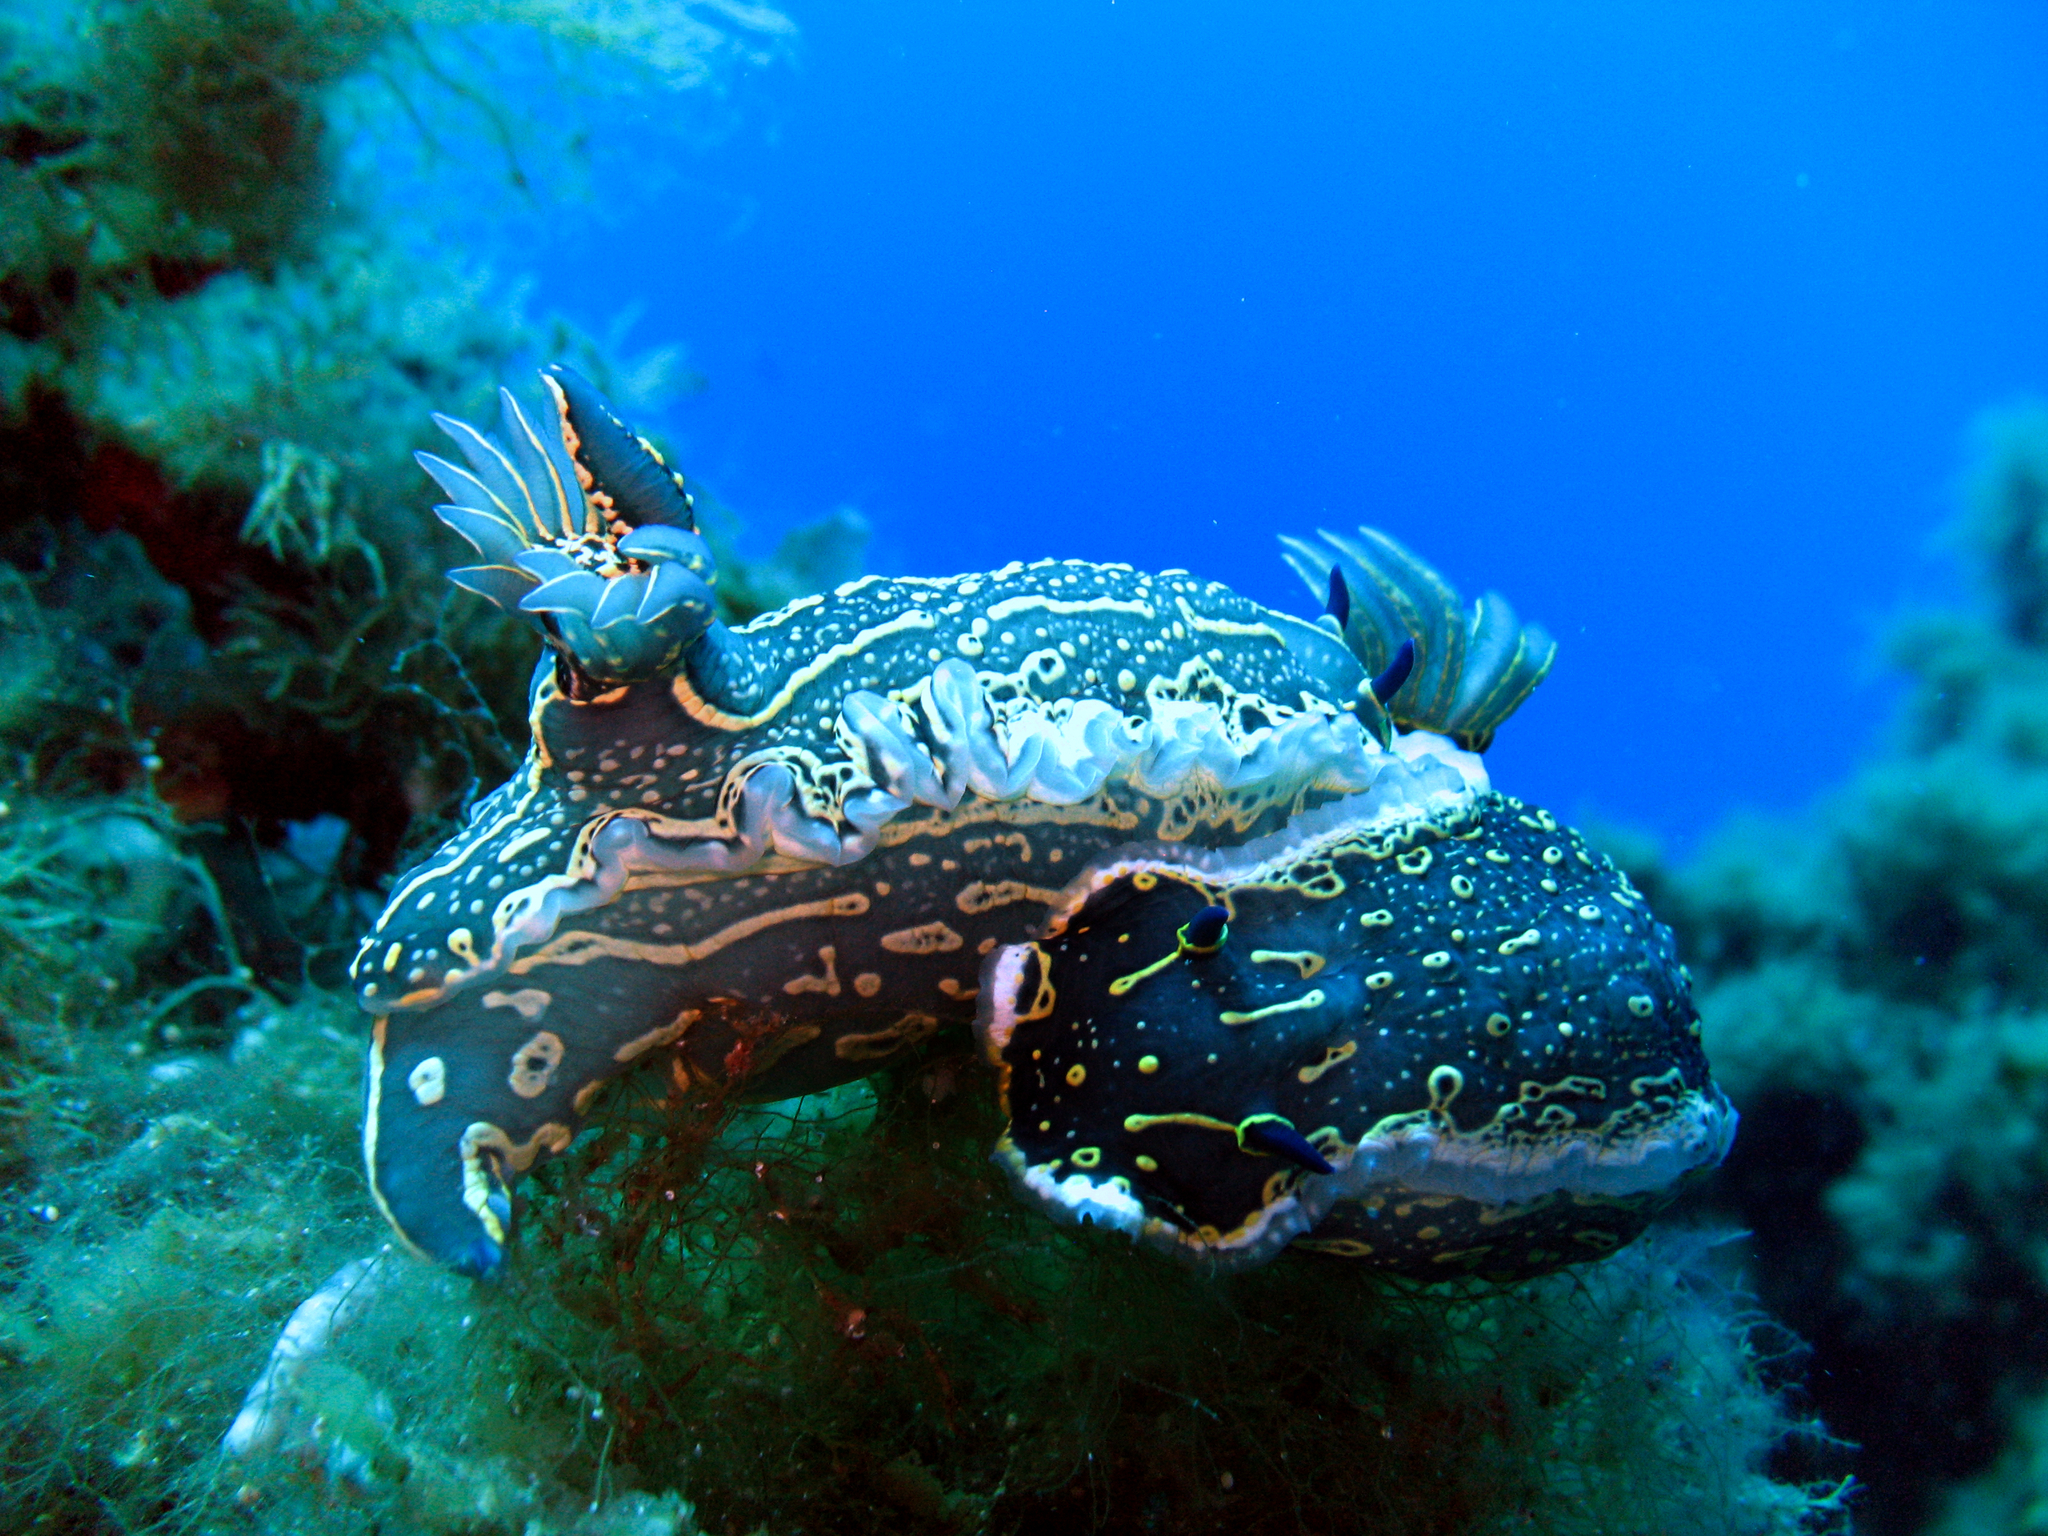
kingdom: Animalia
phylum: Mollusca
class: Gastropoda
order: Nudibranchia
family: Chromodorididae
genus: Felimare
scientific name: Felimare picta
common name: Giant doris
